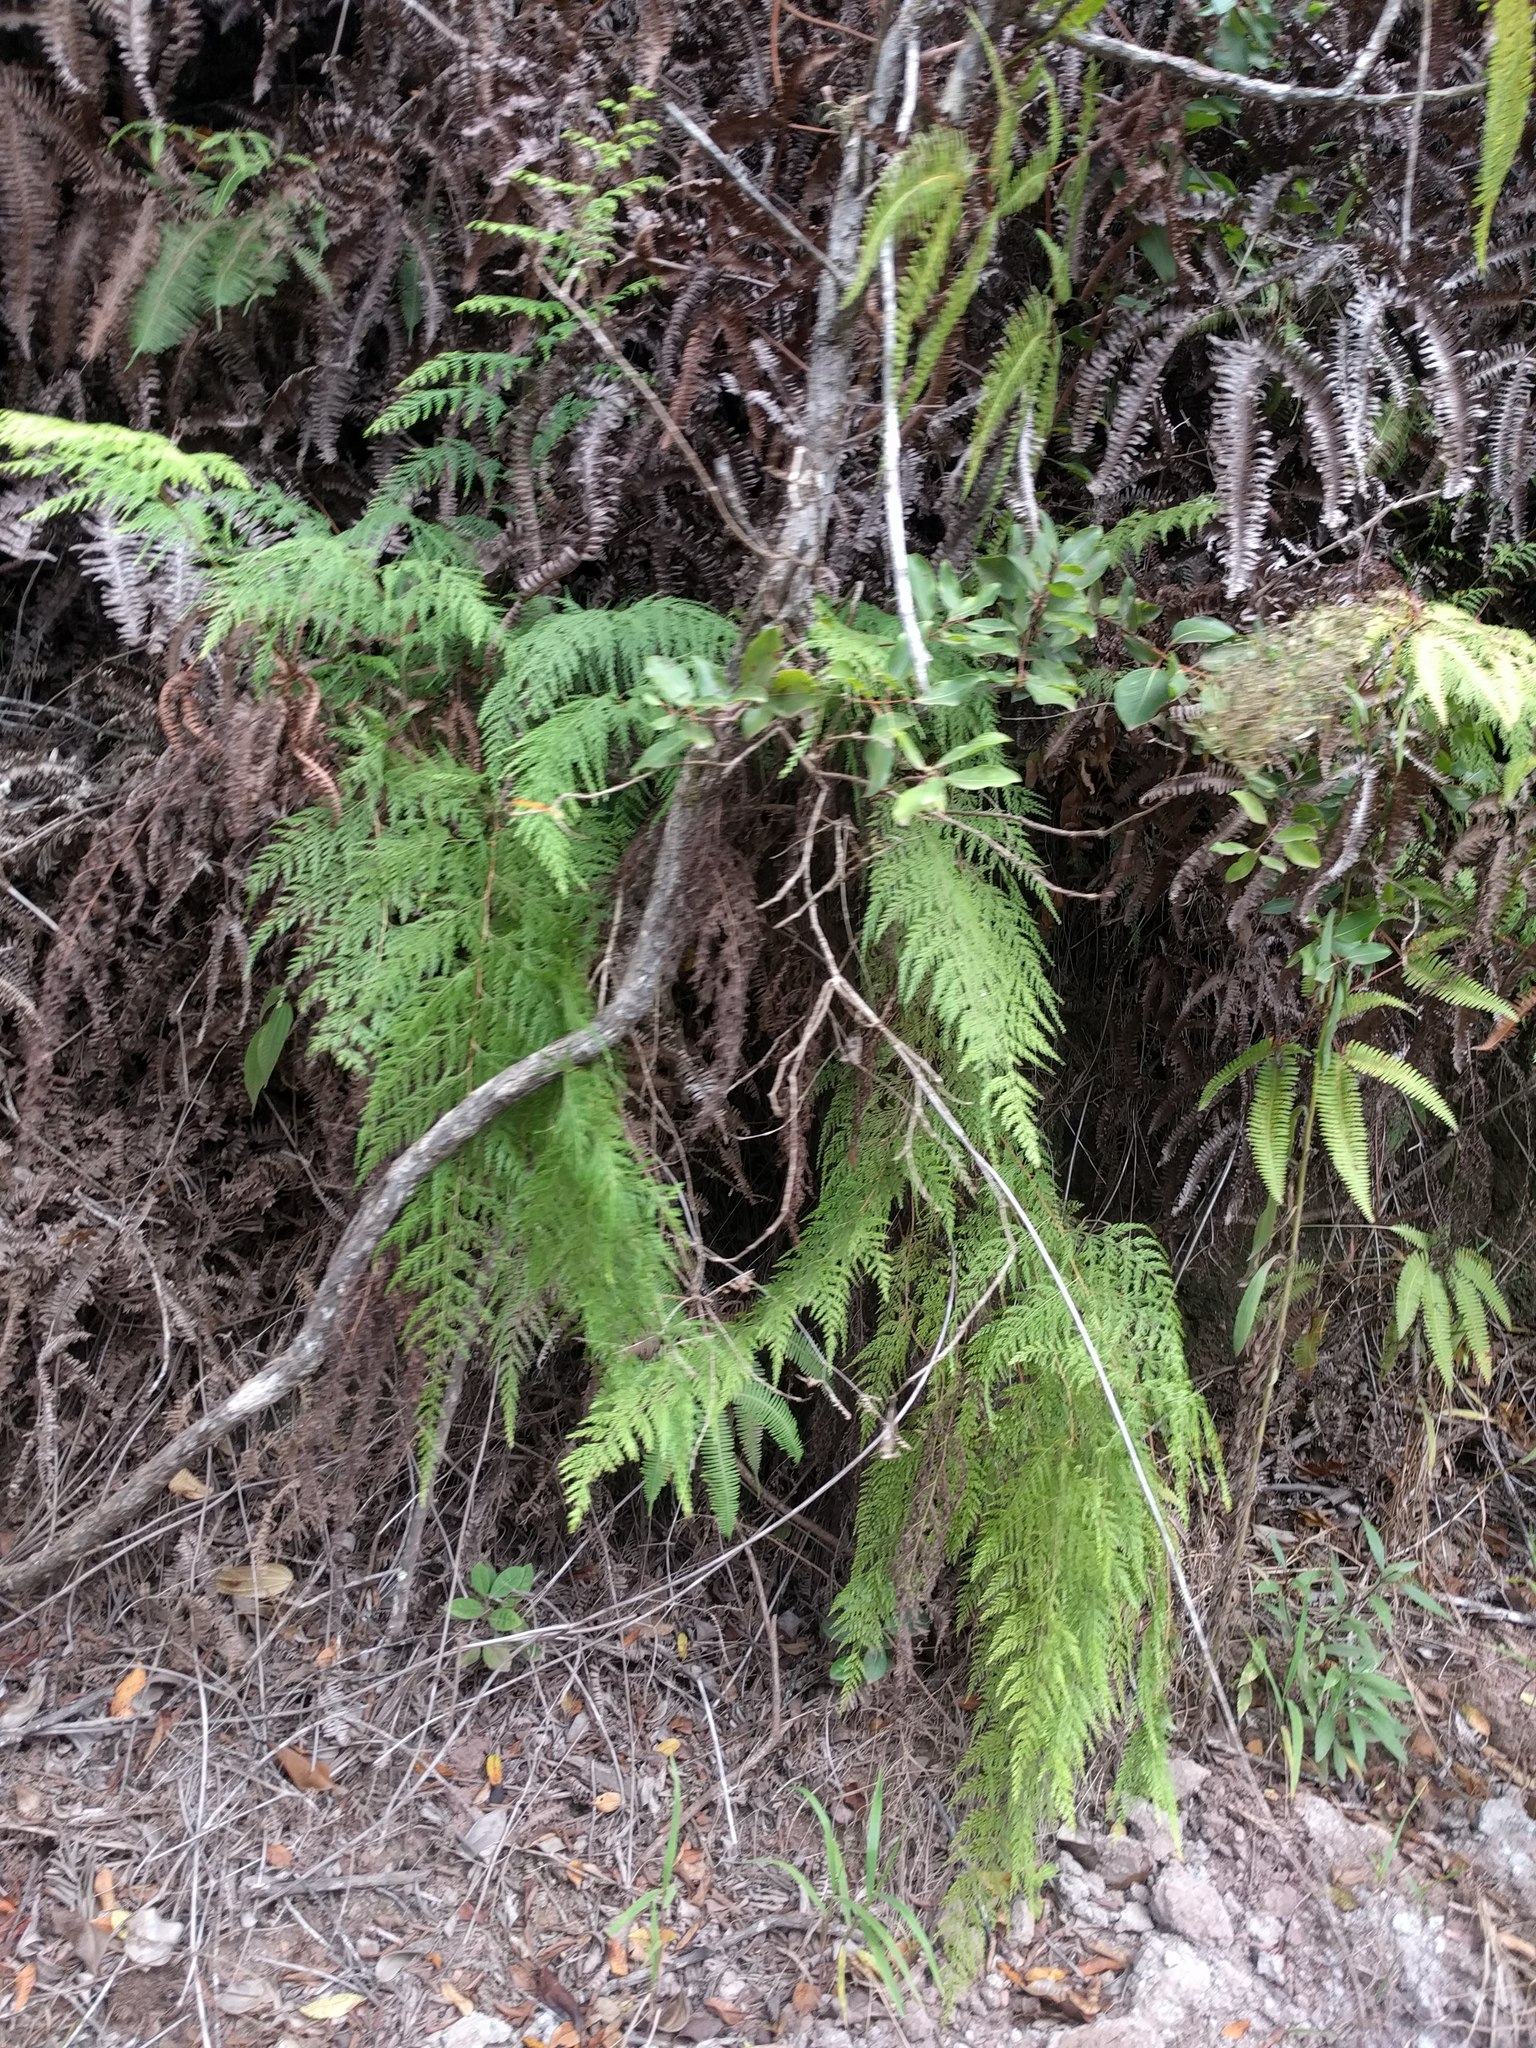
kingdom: Plantae
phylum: Tracheophyta
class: Polypodiopsida
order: Polypodiales
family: Lindsaeaceae
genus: Odontosoria
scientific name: Odontosoria chinensis
